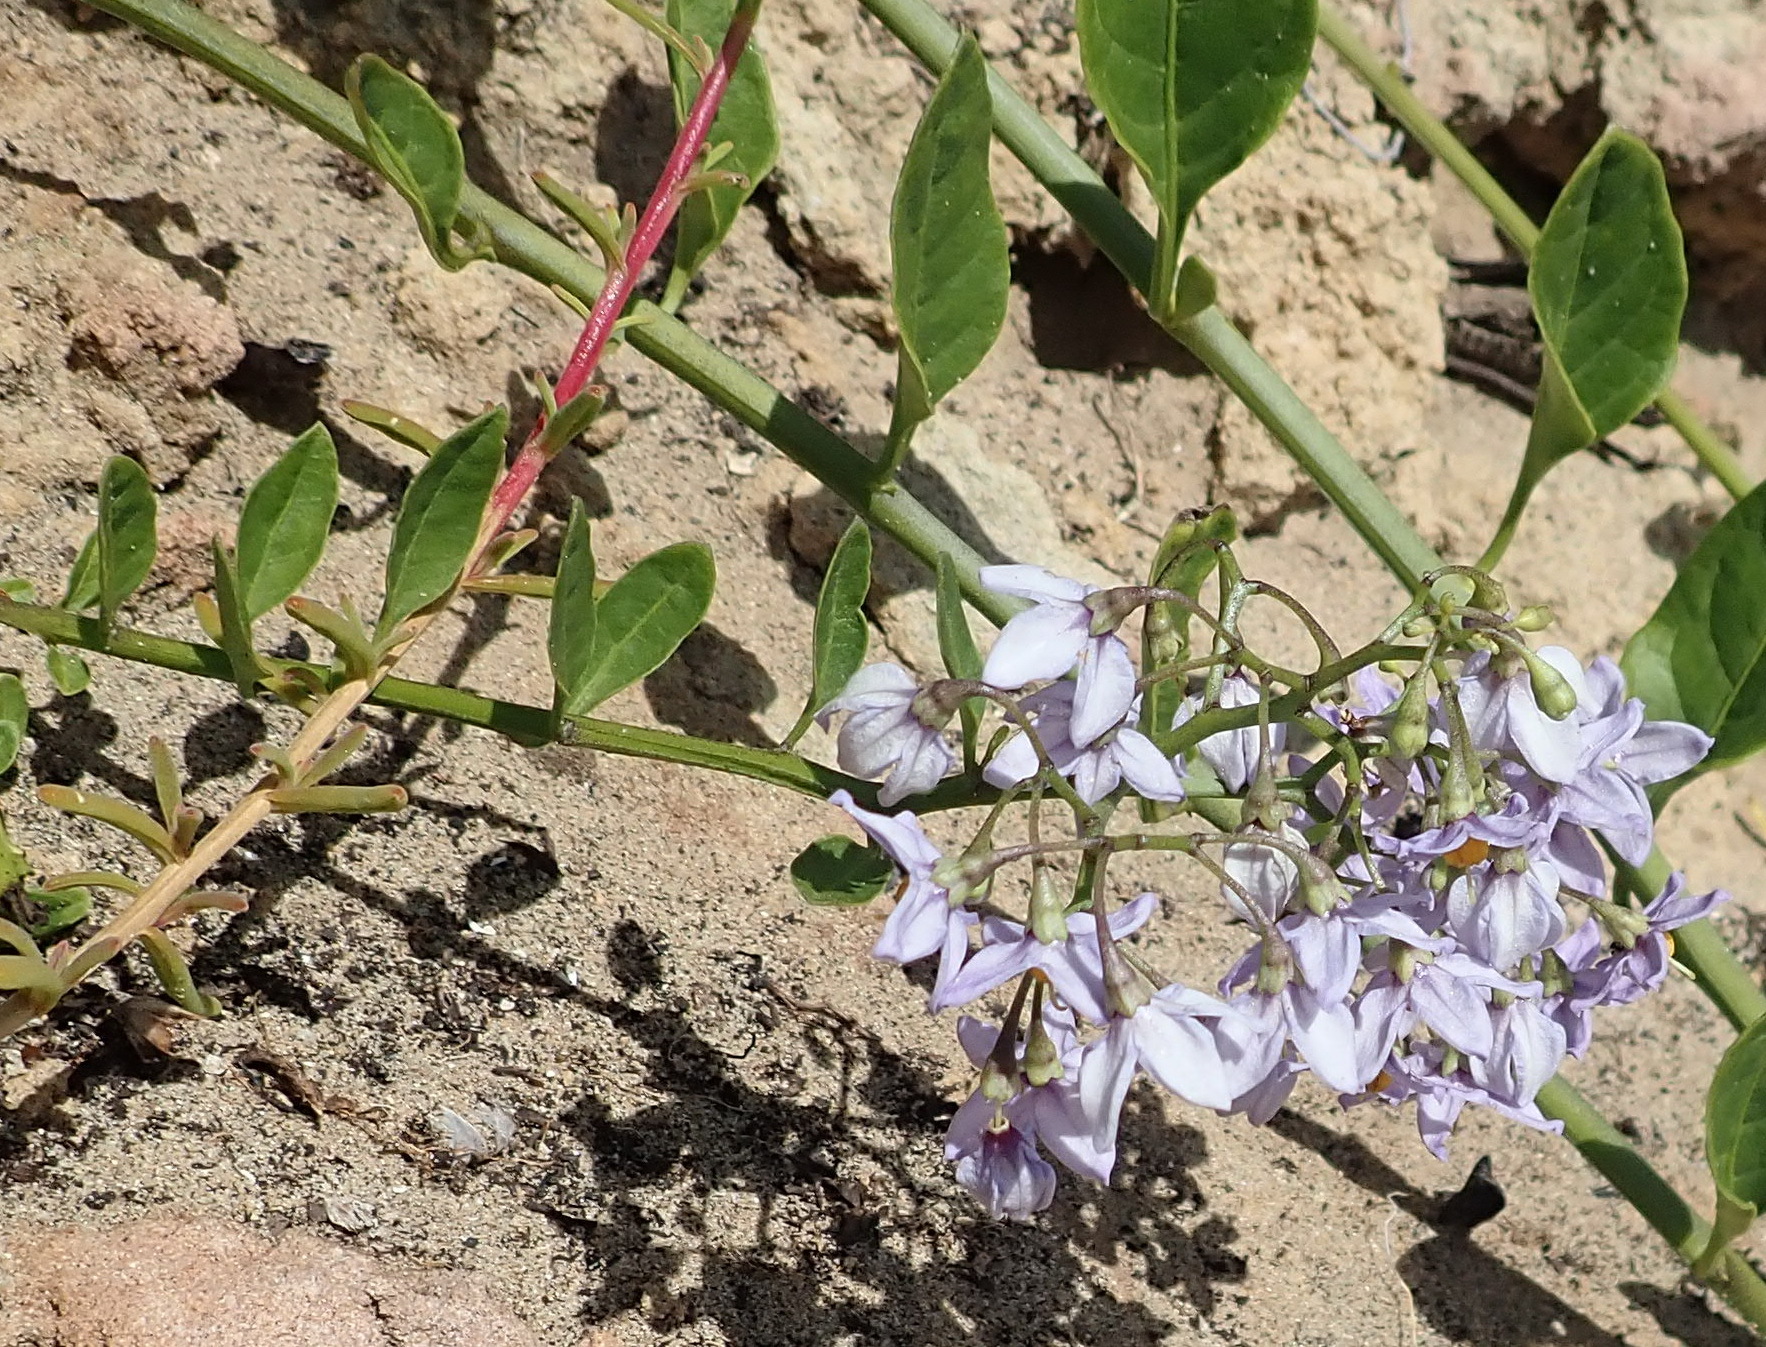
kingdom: Plantae
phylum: Tracheophyta
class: Magnoliopsida
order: Solanales
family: Solanaceae
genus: Solanum
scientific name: Solanum africanum
